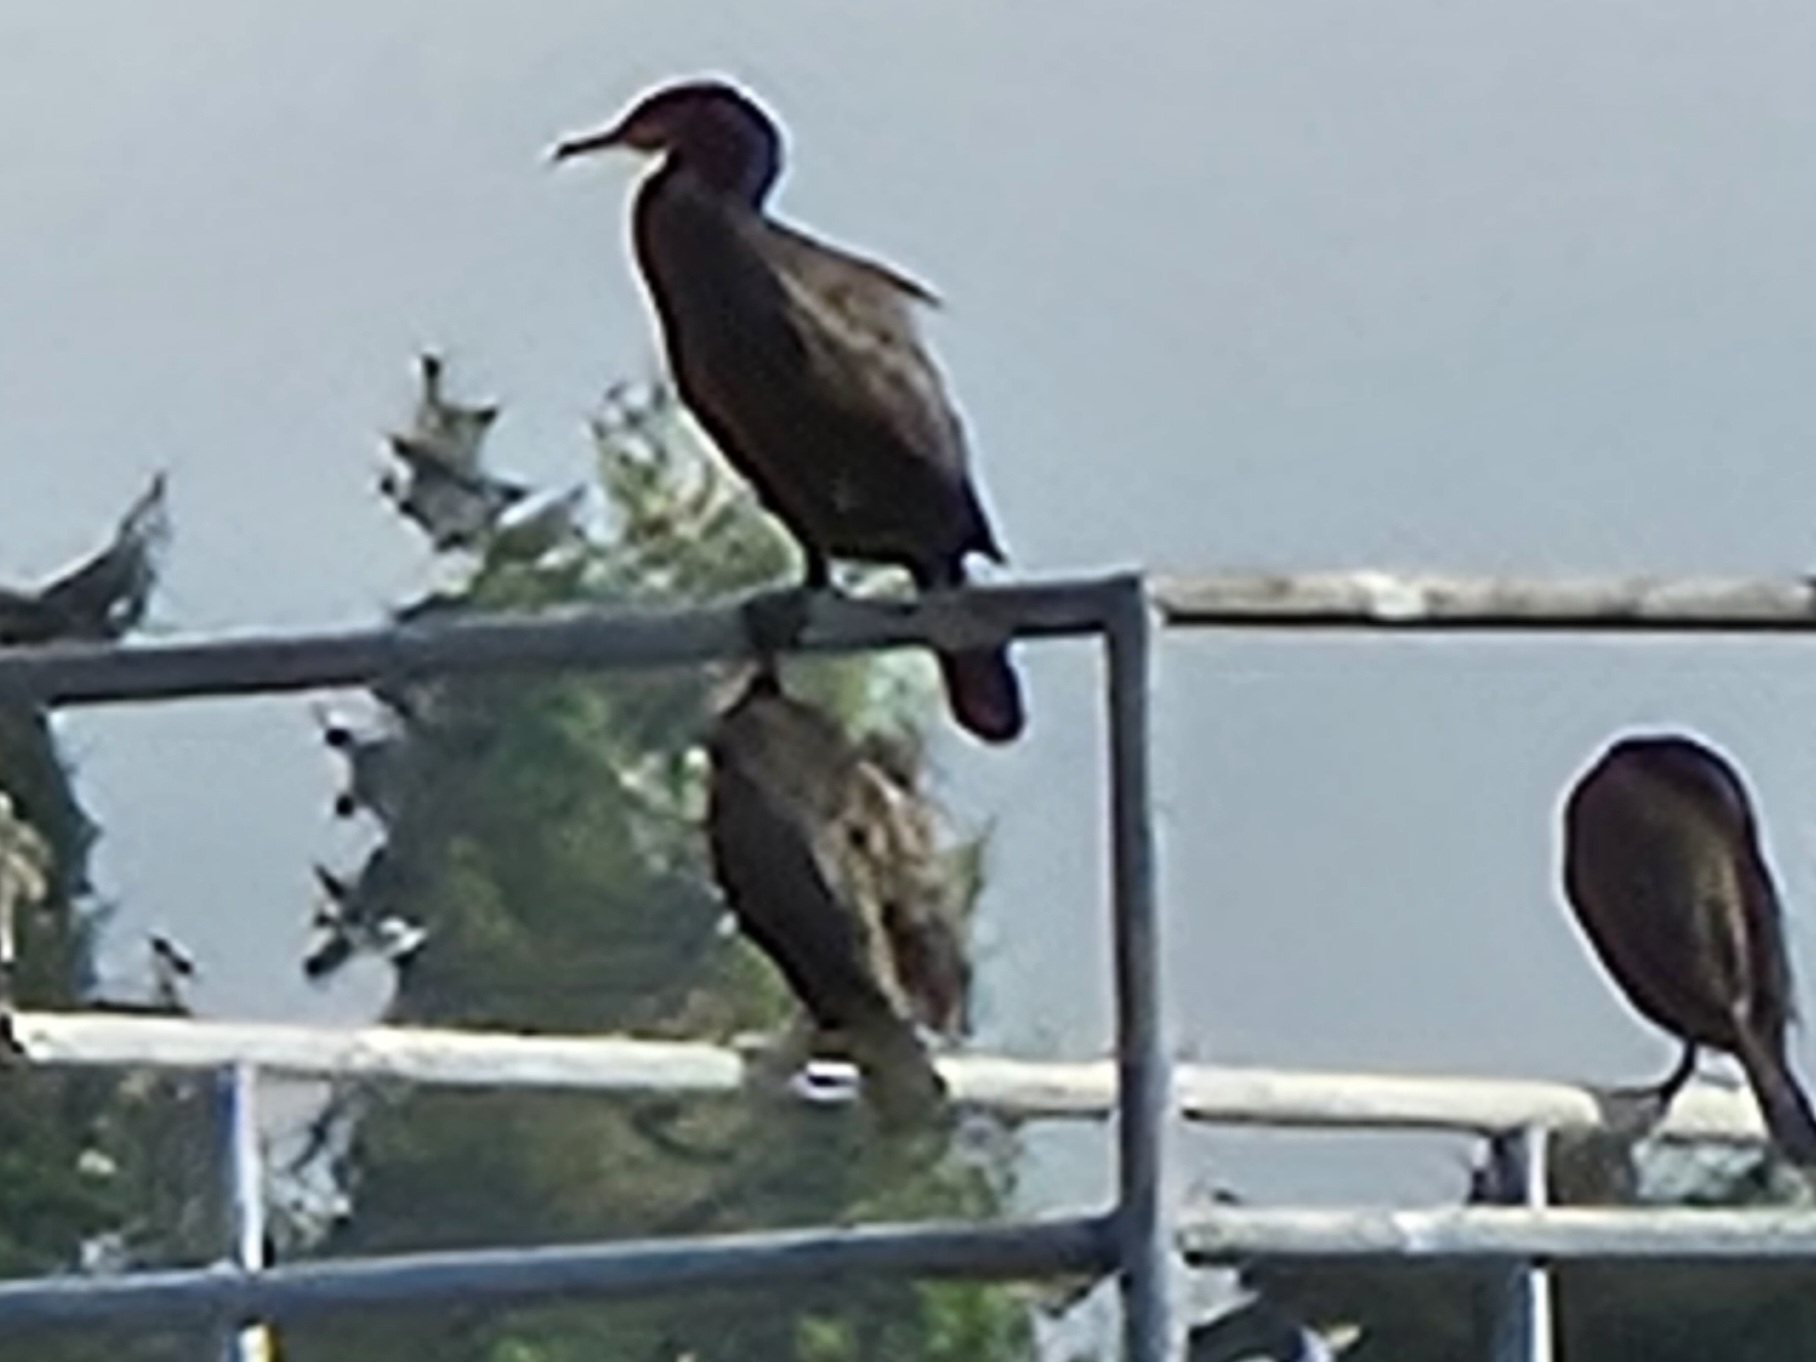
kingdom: Animalia
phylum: Chordata
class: Aves
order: Suliformes
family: Phalacrocoracidae
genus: Phalacrocorax
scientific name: Phalacrocorax auritus
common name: Double-crested cormorant
